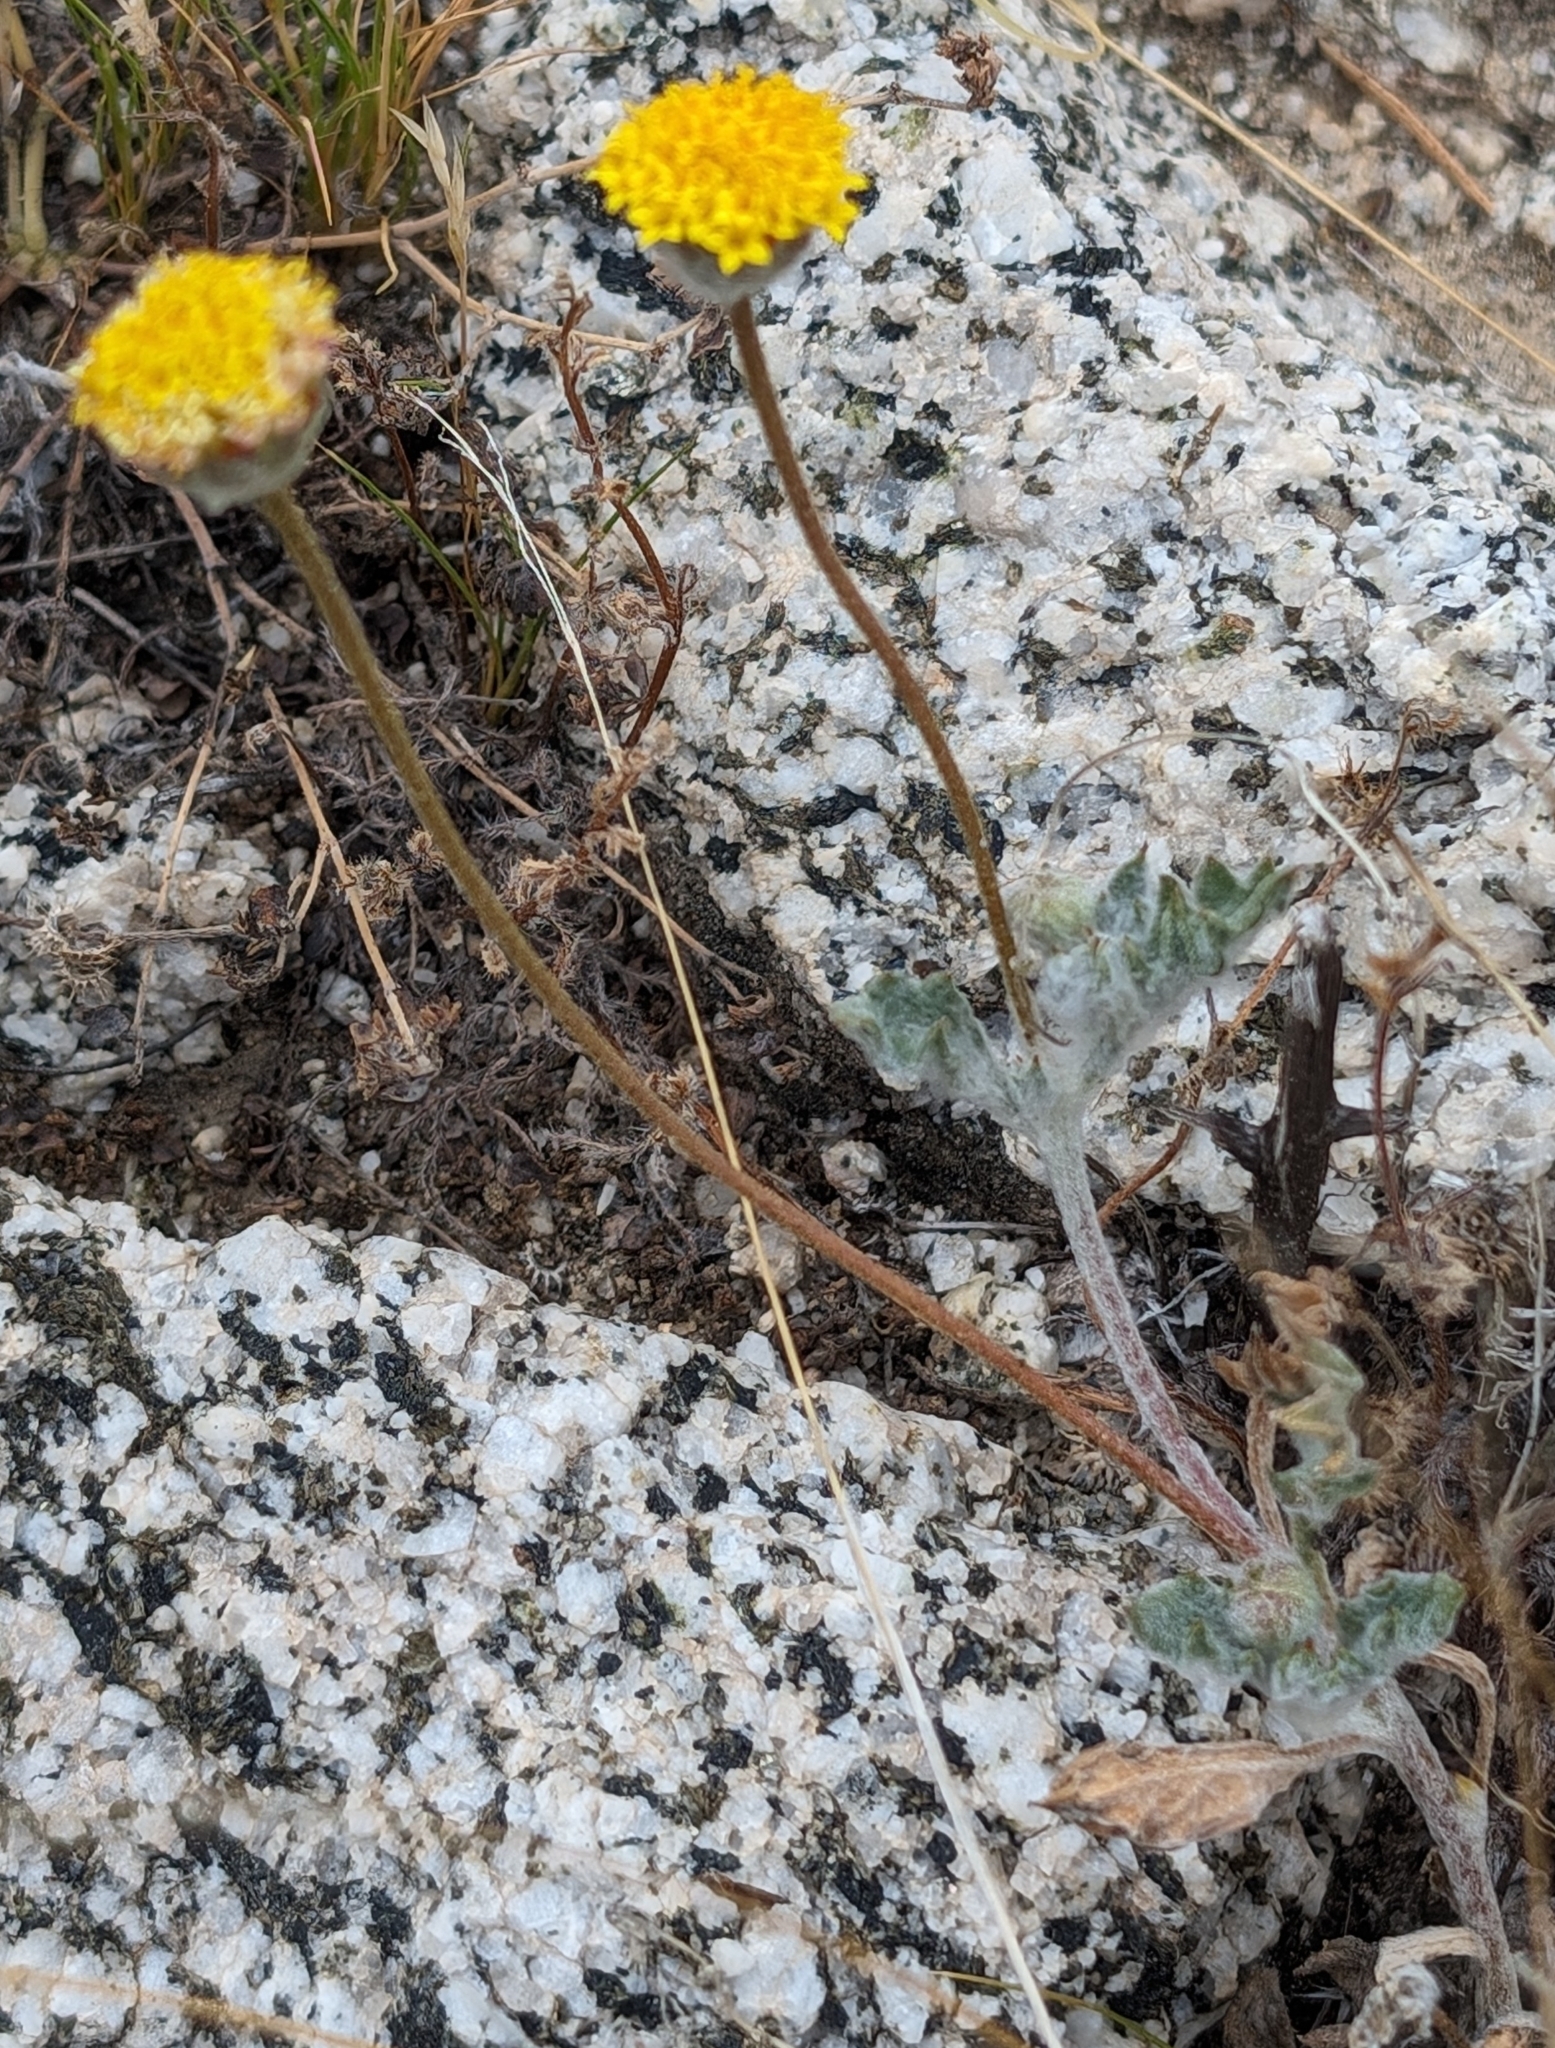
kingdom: Plantae
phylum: Tracheophyta
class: Magnoliopsida
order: Asterales
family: Asteraceae
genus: Trichoptilium
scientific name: Trichoptilium incisum
